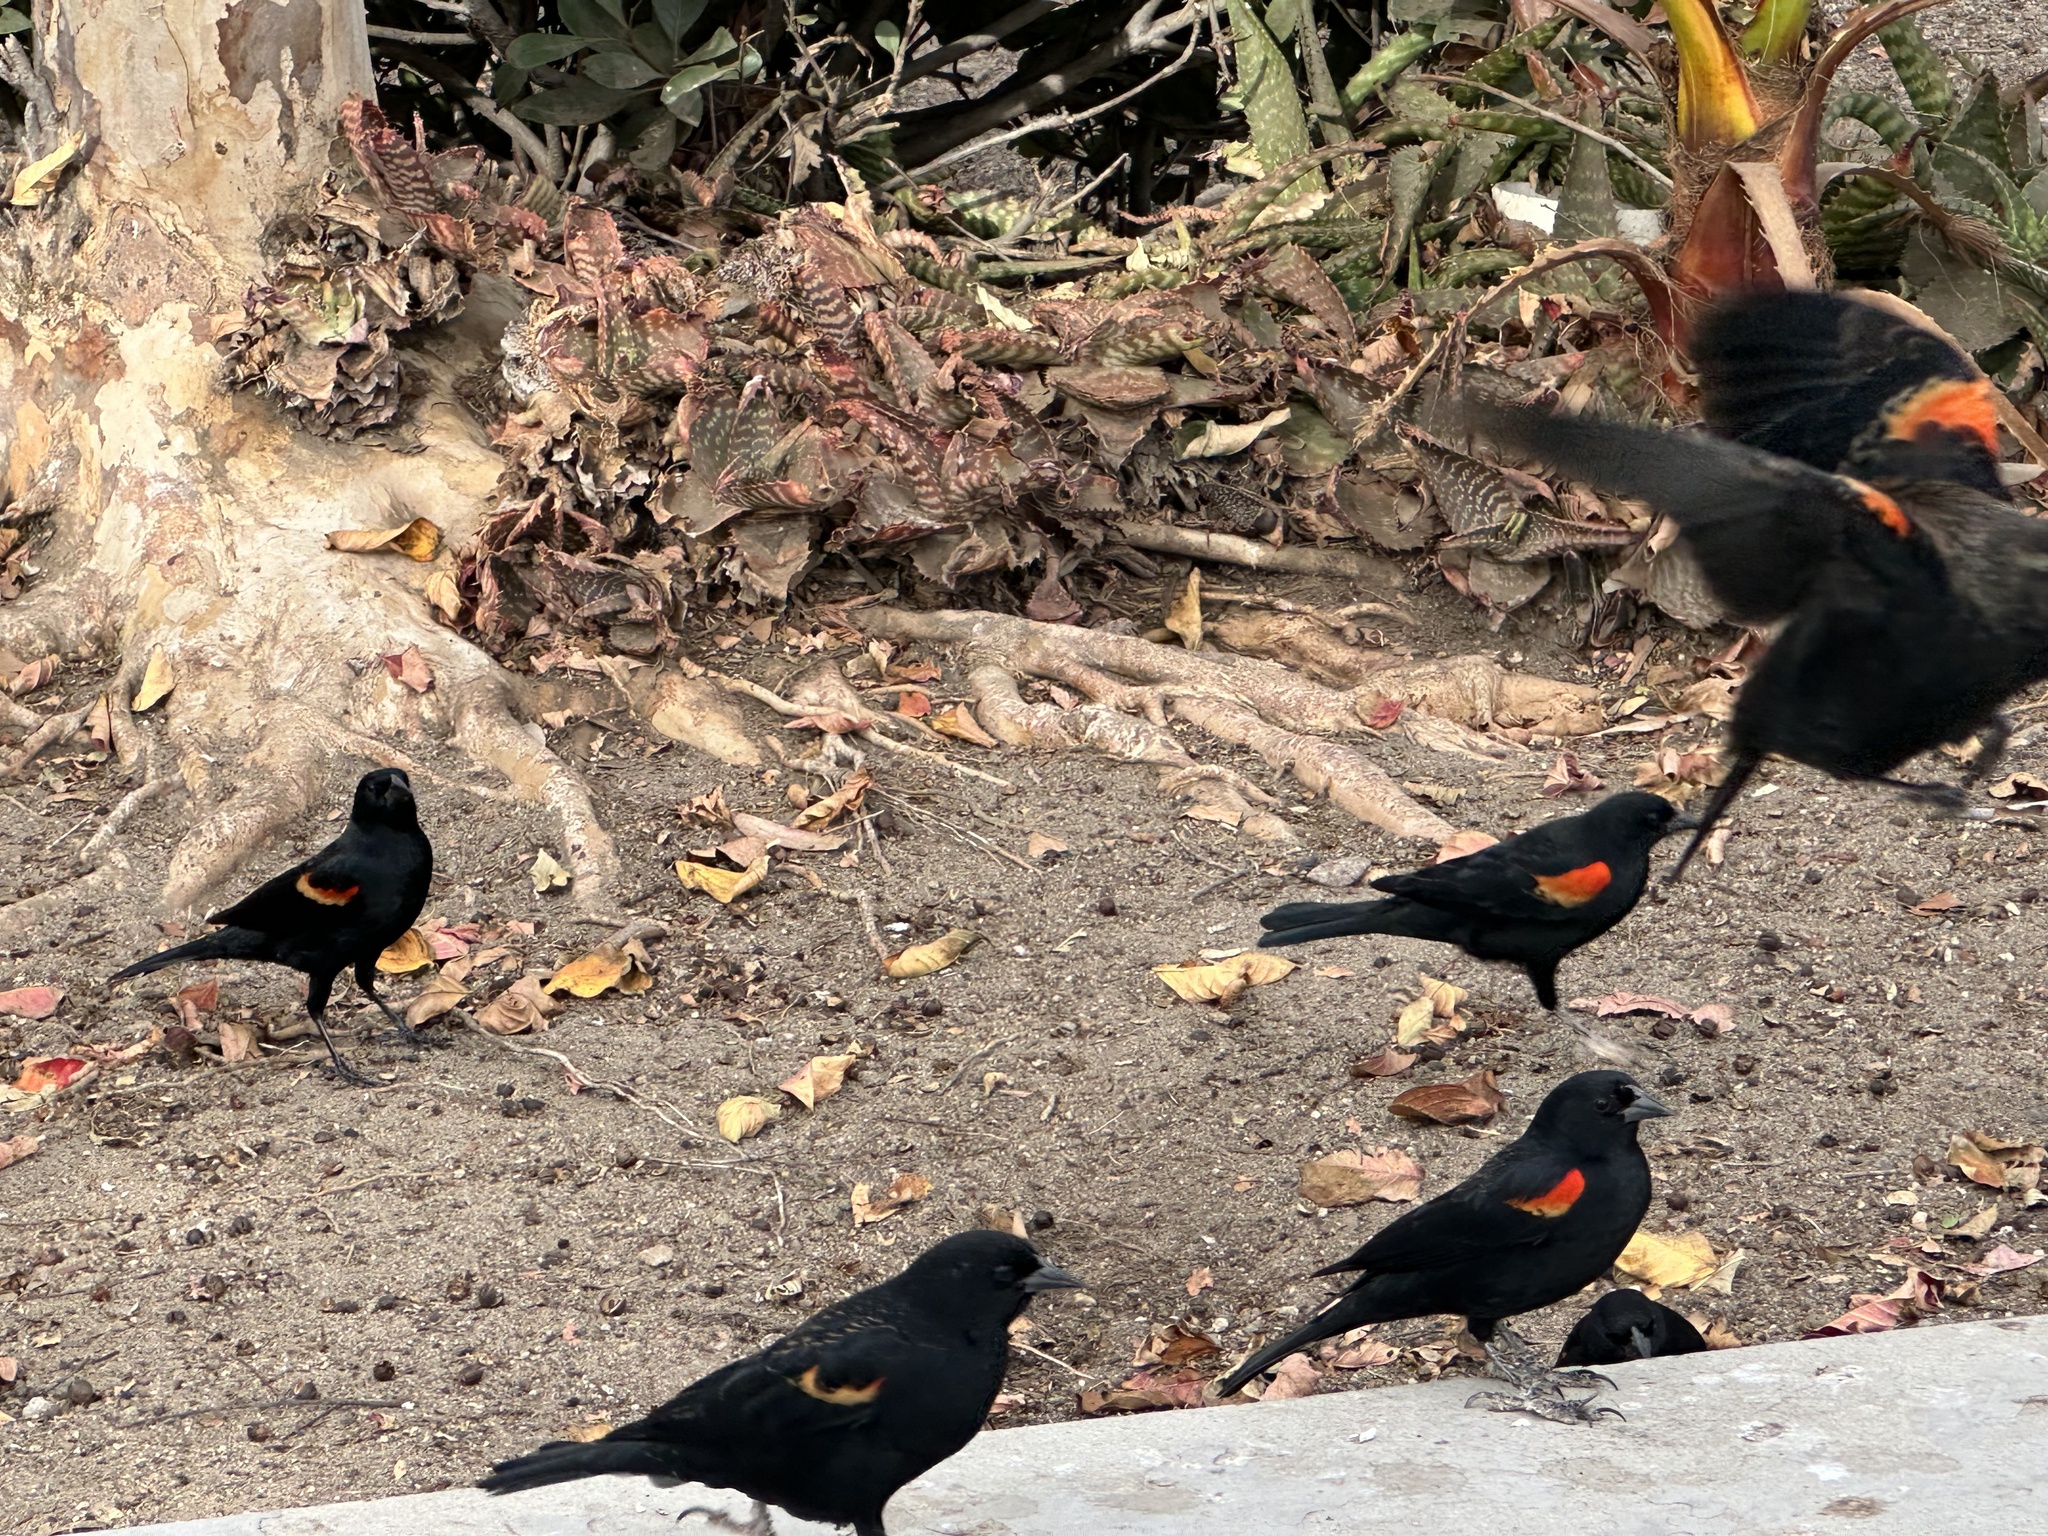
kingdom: Animalia
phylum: Chordata
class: Aves
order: Passeriformes
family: Icteridae
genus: Agelaius
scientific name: Agelaius phoeniceus
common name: Red-winged blackbird
